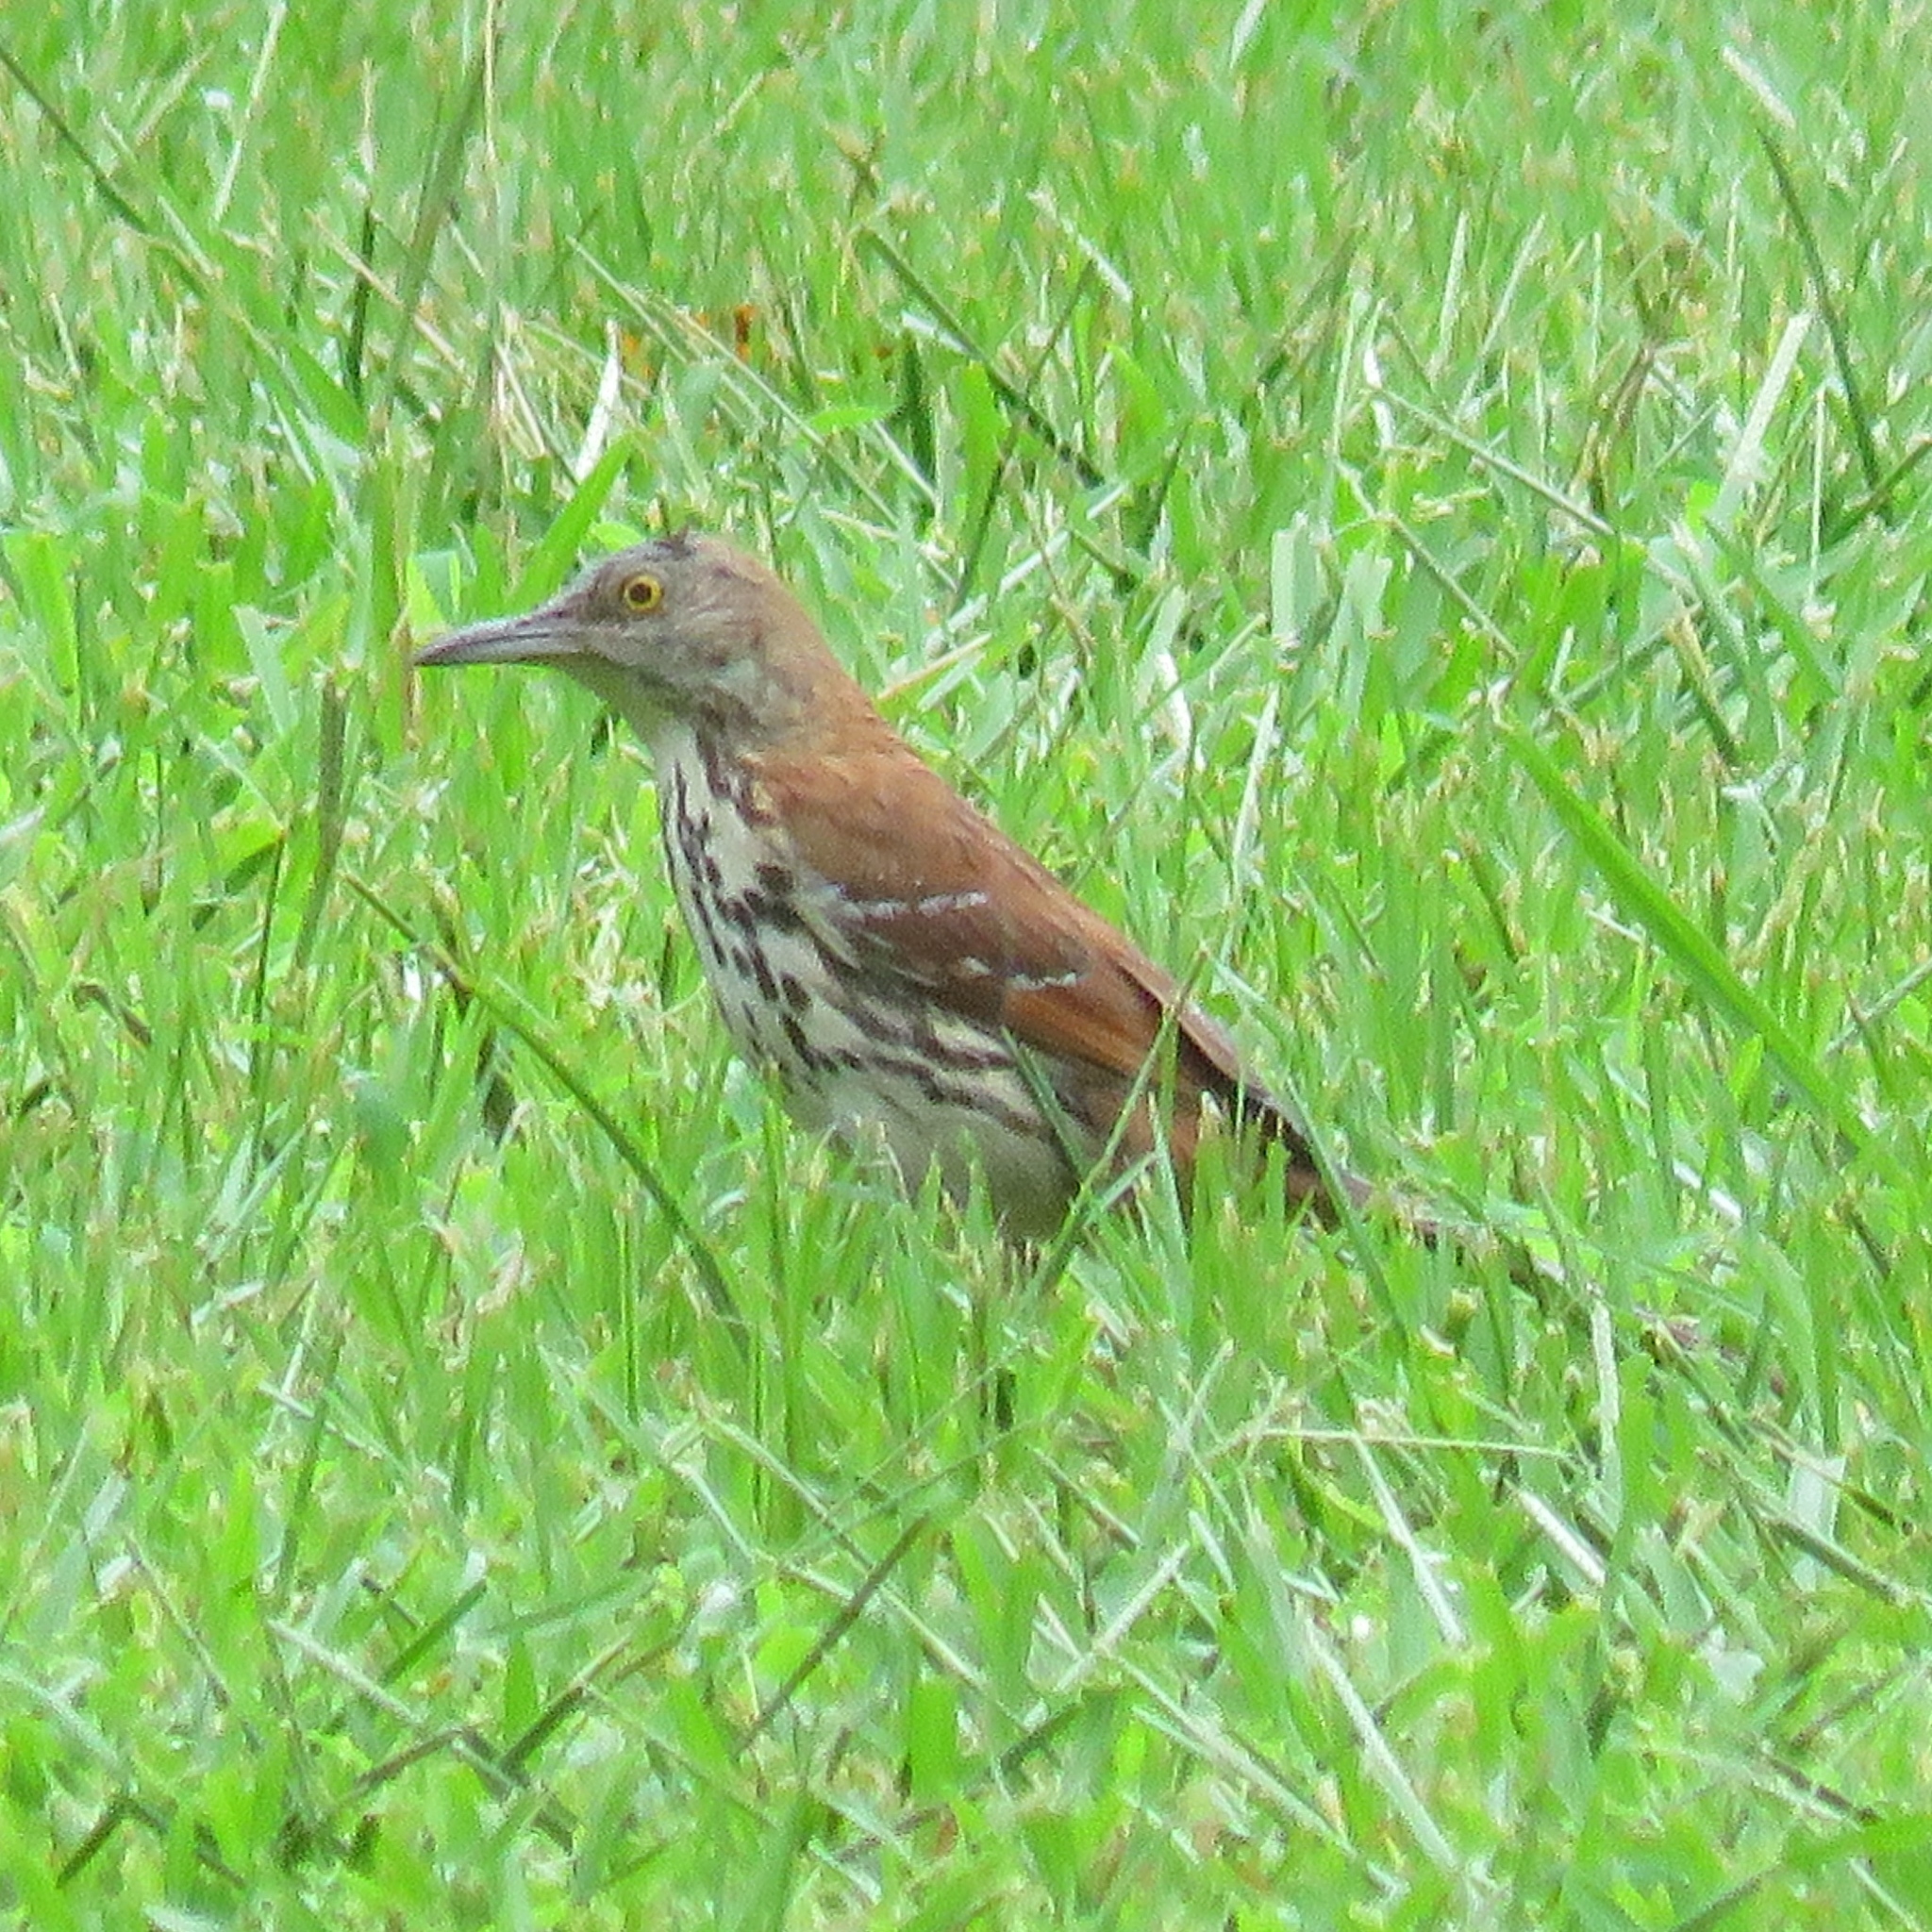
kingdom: Animalia
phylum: Chordata
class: Aves
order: Passeriformes
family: Mimidae
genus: Toxostoma
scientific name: Toxostoma rufum
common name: Brown thrasher
